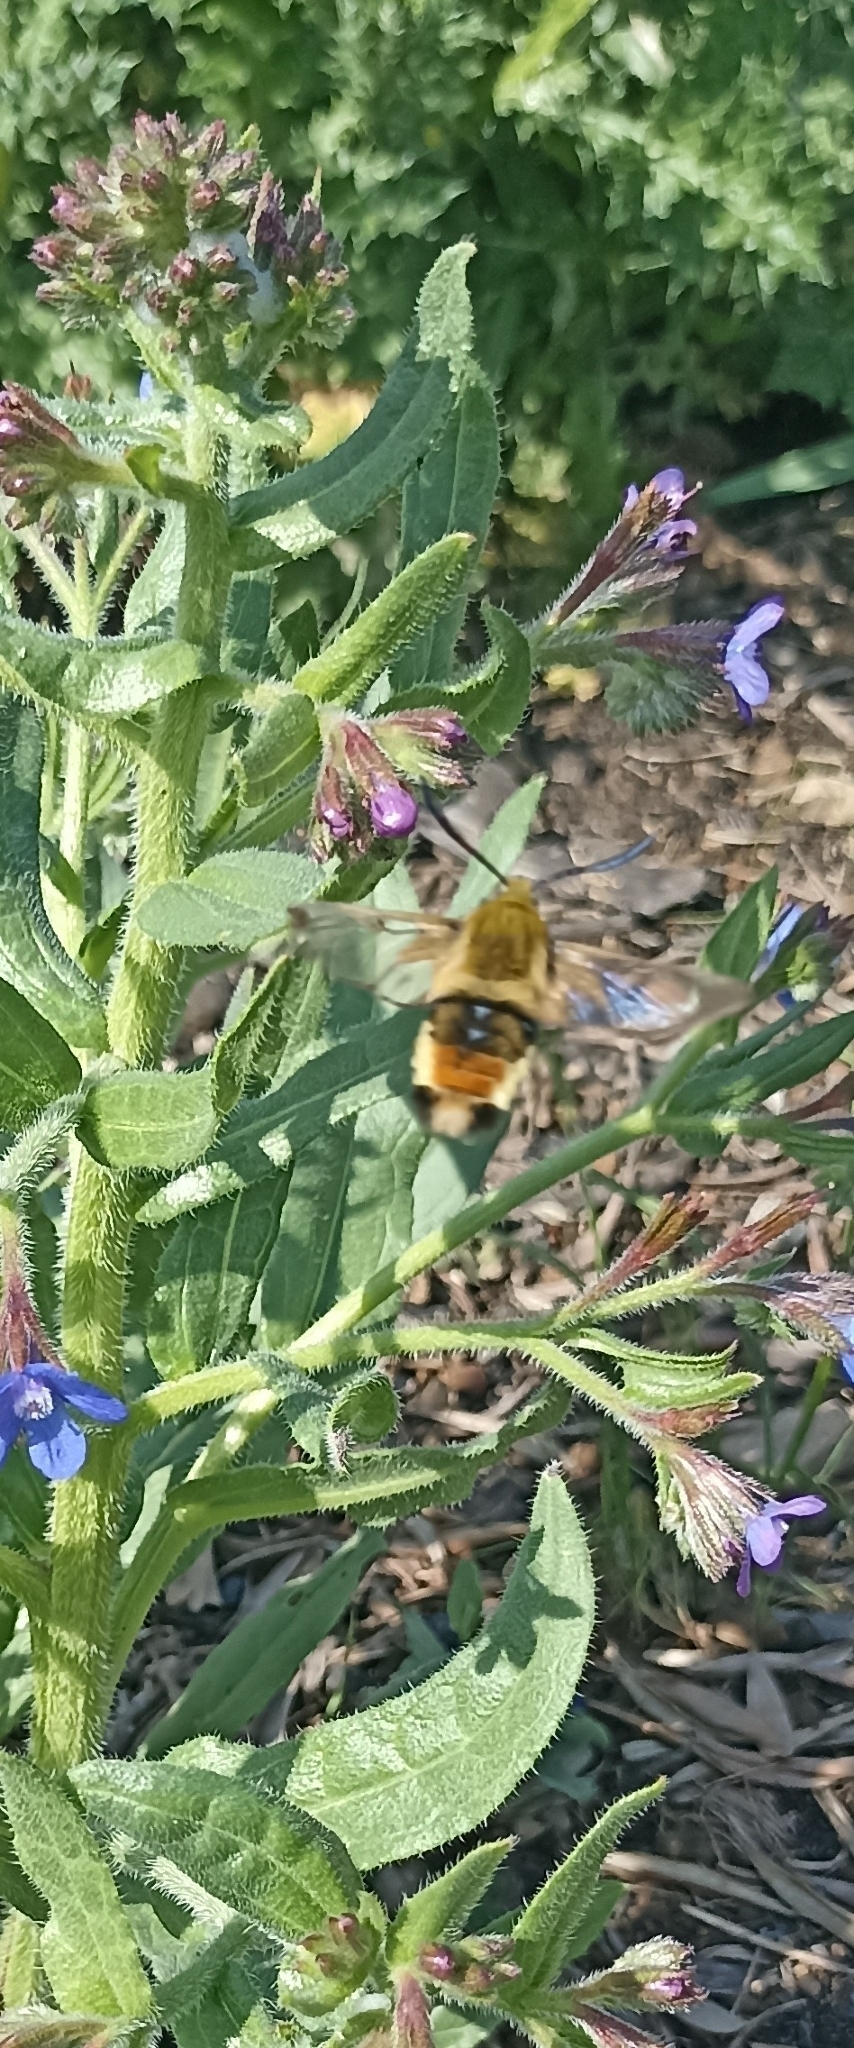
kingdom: Animalia
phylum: Arthropoda
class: Insecta
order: Lepidoptera
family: Sphingidae
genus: Hemaris
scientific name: Hemaris tityus
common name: Narrow-bordered bee hawk-moth
